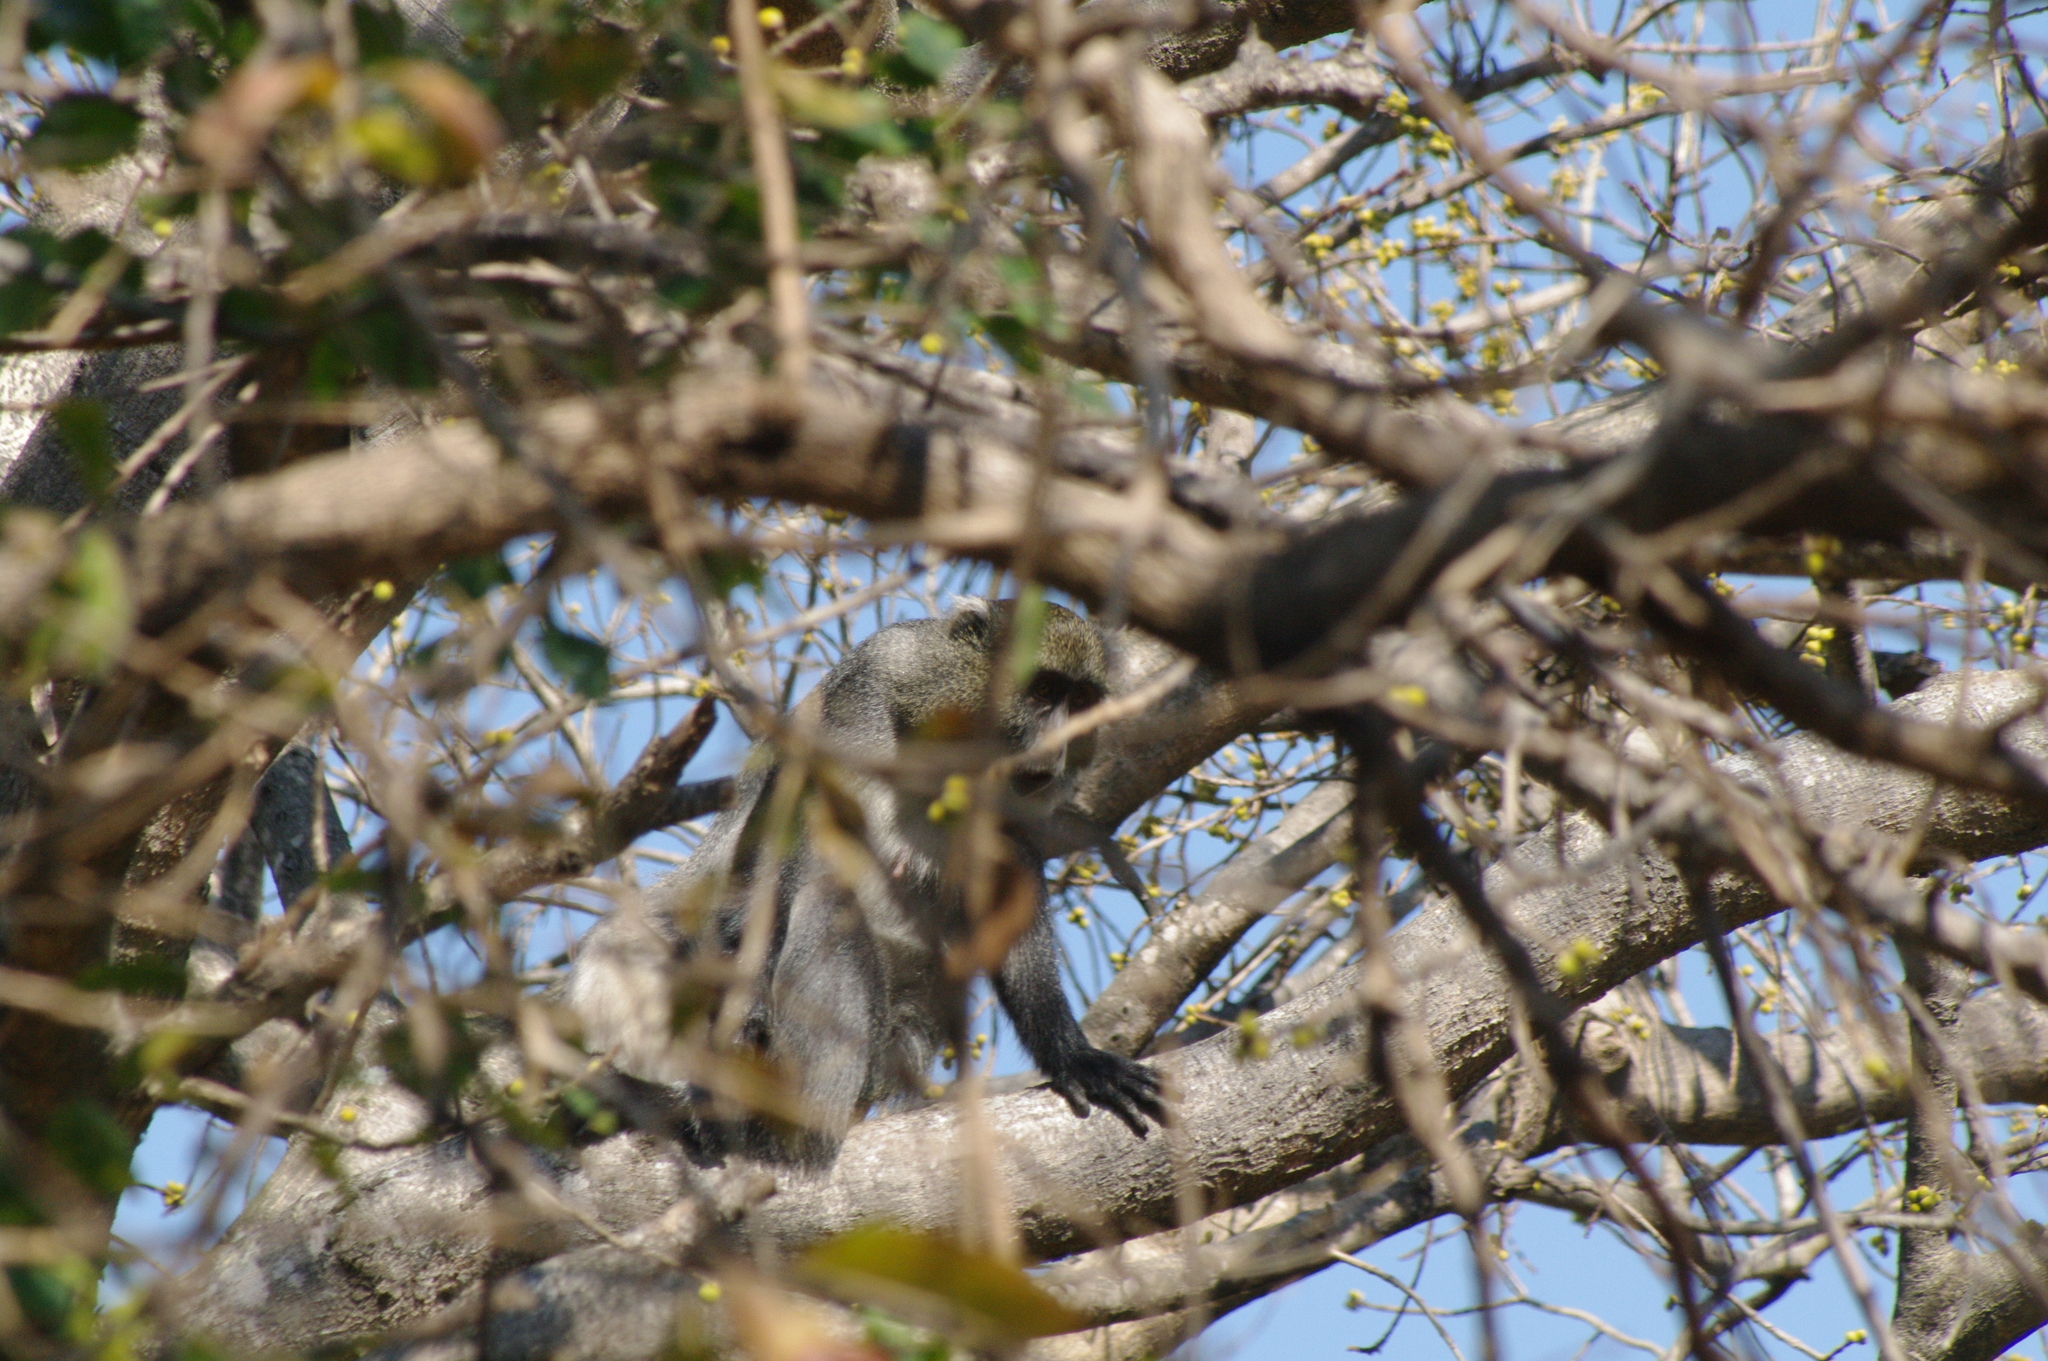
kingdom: Animalia
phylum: Chordata
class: Mammalia
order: Primates
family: Cercopithecidae
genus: Cercopithecus
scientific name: Cercopithecus mitis
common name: Blue monkey
